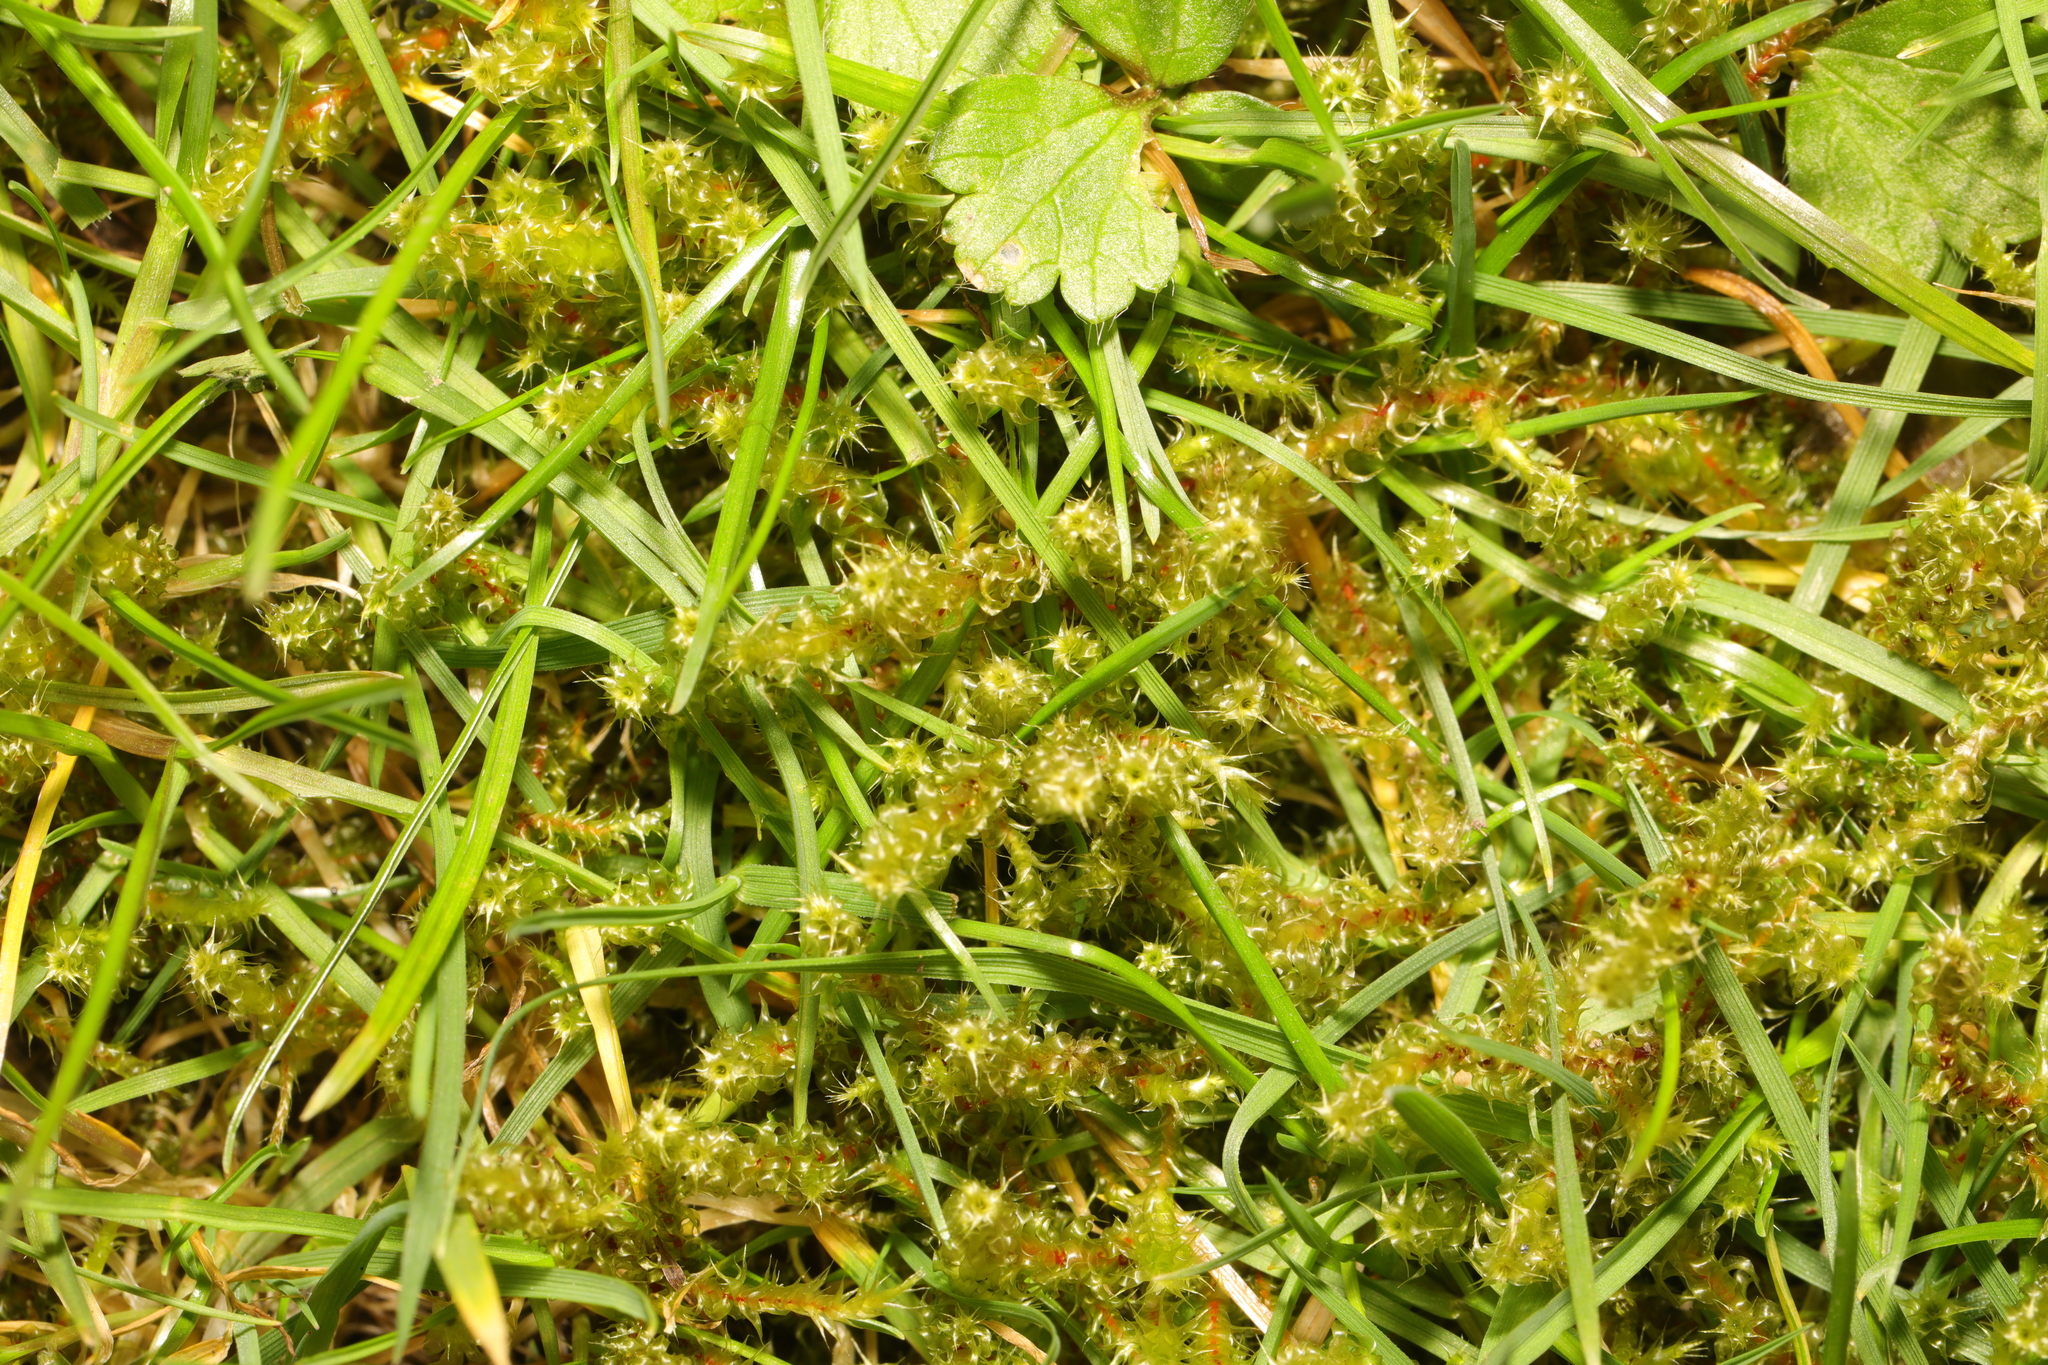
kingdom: Plantae
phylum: Bryophyta
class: Bryopsida
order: Hypnales
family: Hylocomiaceae
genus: Rhytidiadelphus
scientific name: Rhytidiadelphus squarrosus
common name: Springy turf-moss
